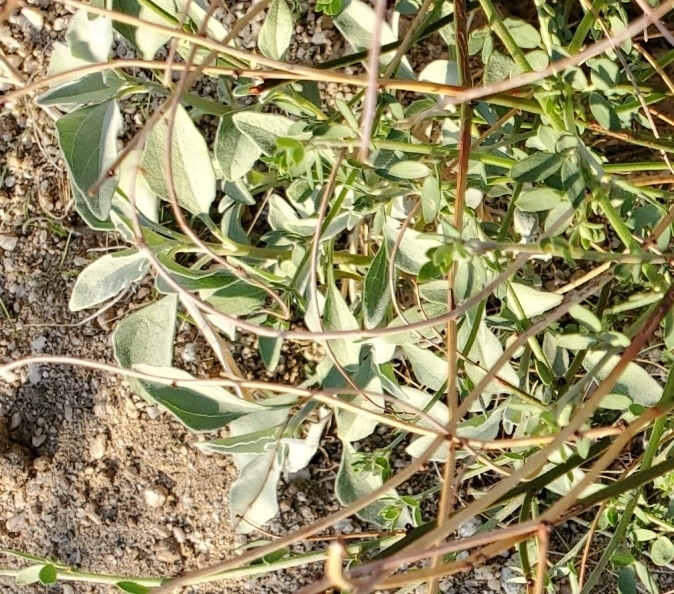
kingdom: Plantae
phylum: Tracheophyta
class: Magnoliopsida
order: Fabales
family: Fabaceae
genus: Acmispon
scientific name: Acmispon glaber
